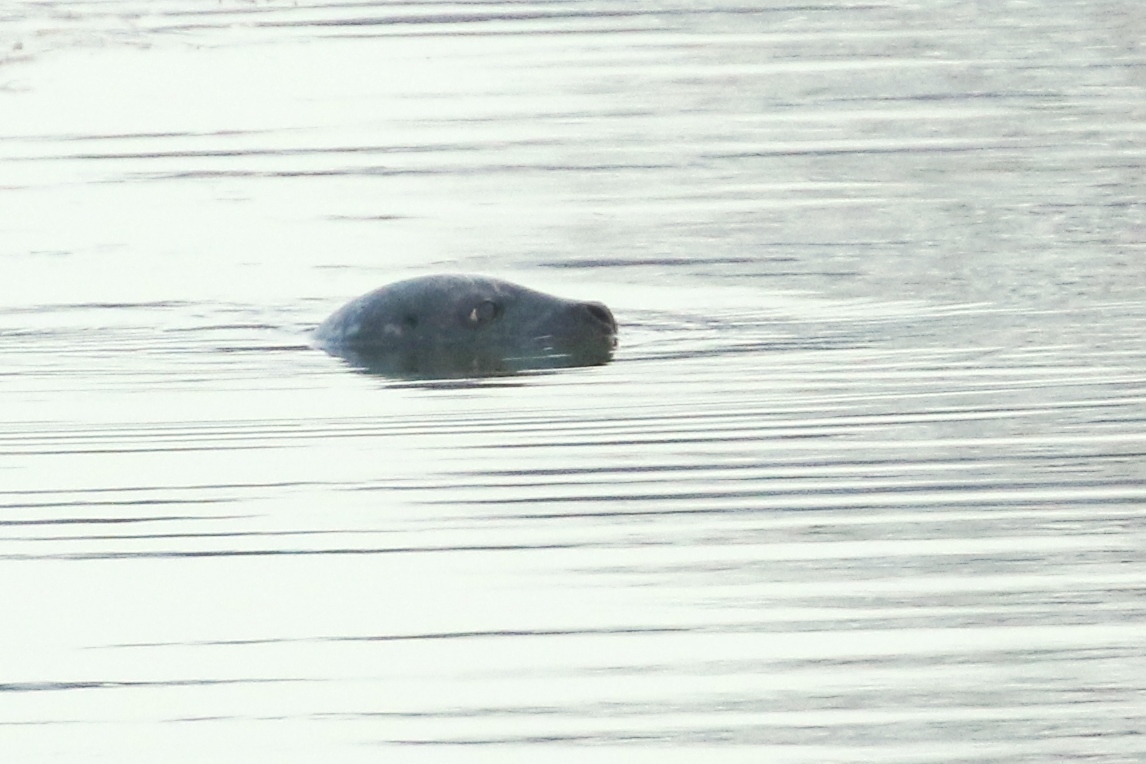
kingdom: Animalia
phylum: Chordata
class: Mammalia
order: Carnivora
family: Phocidae
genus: Phoca
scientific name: Phoca vitulina
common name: Harbor seal
